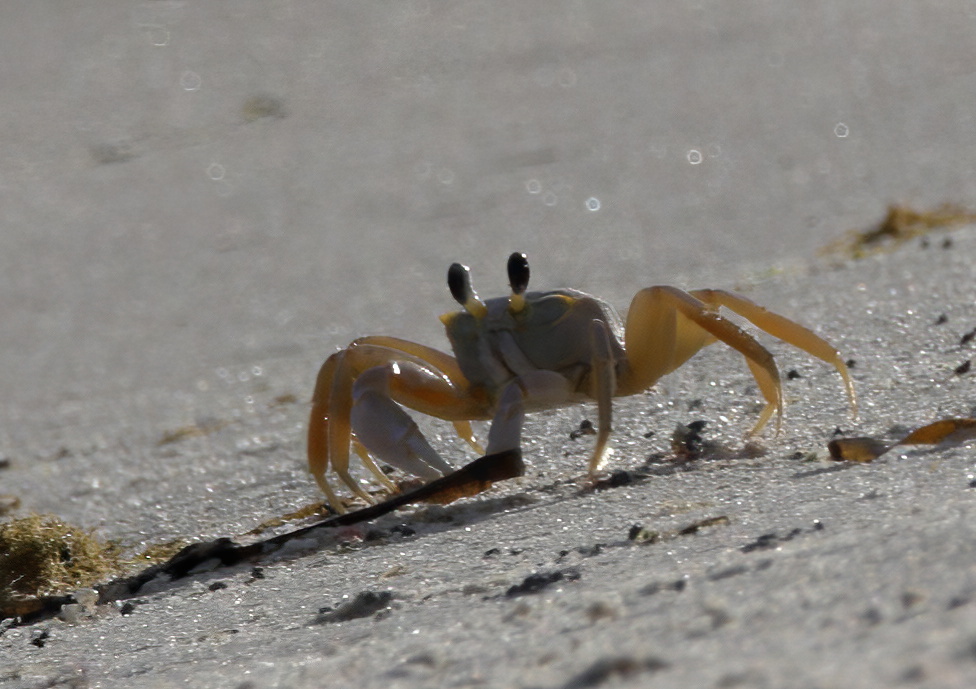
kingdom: Animalia
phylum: Arthropoda
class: Malacostraca
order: Decapoda
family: Ocypodidae
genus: Ocypode
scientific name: Ocypode quadrata
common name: Ghost crab
